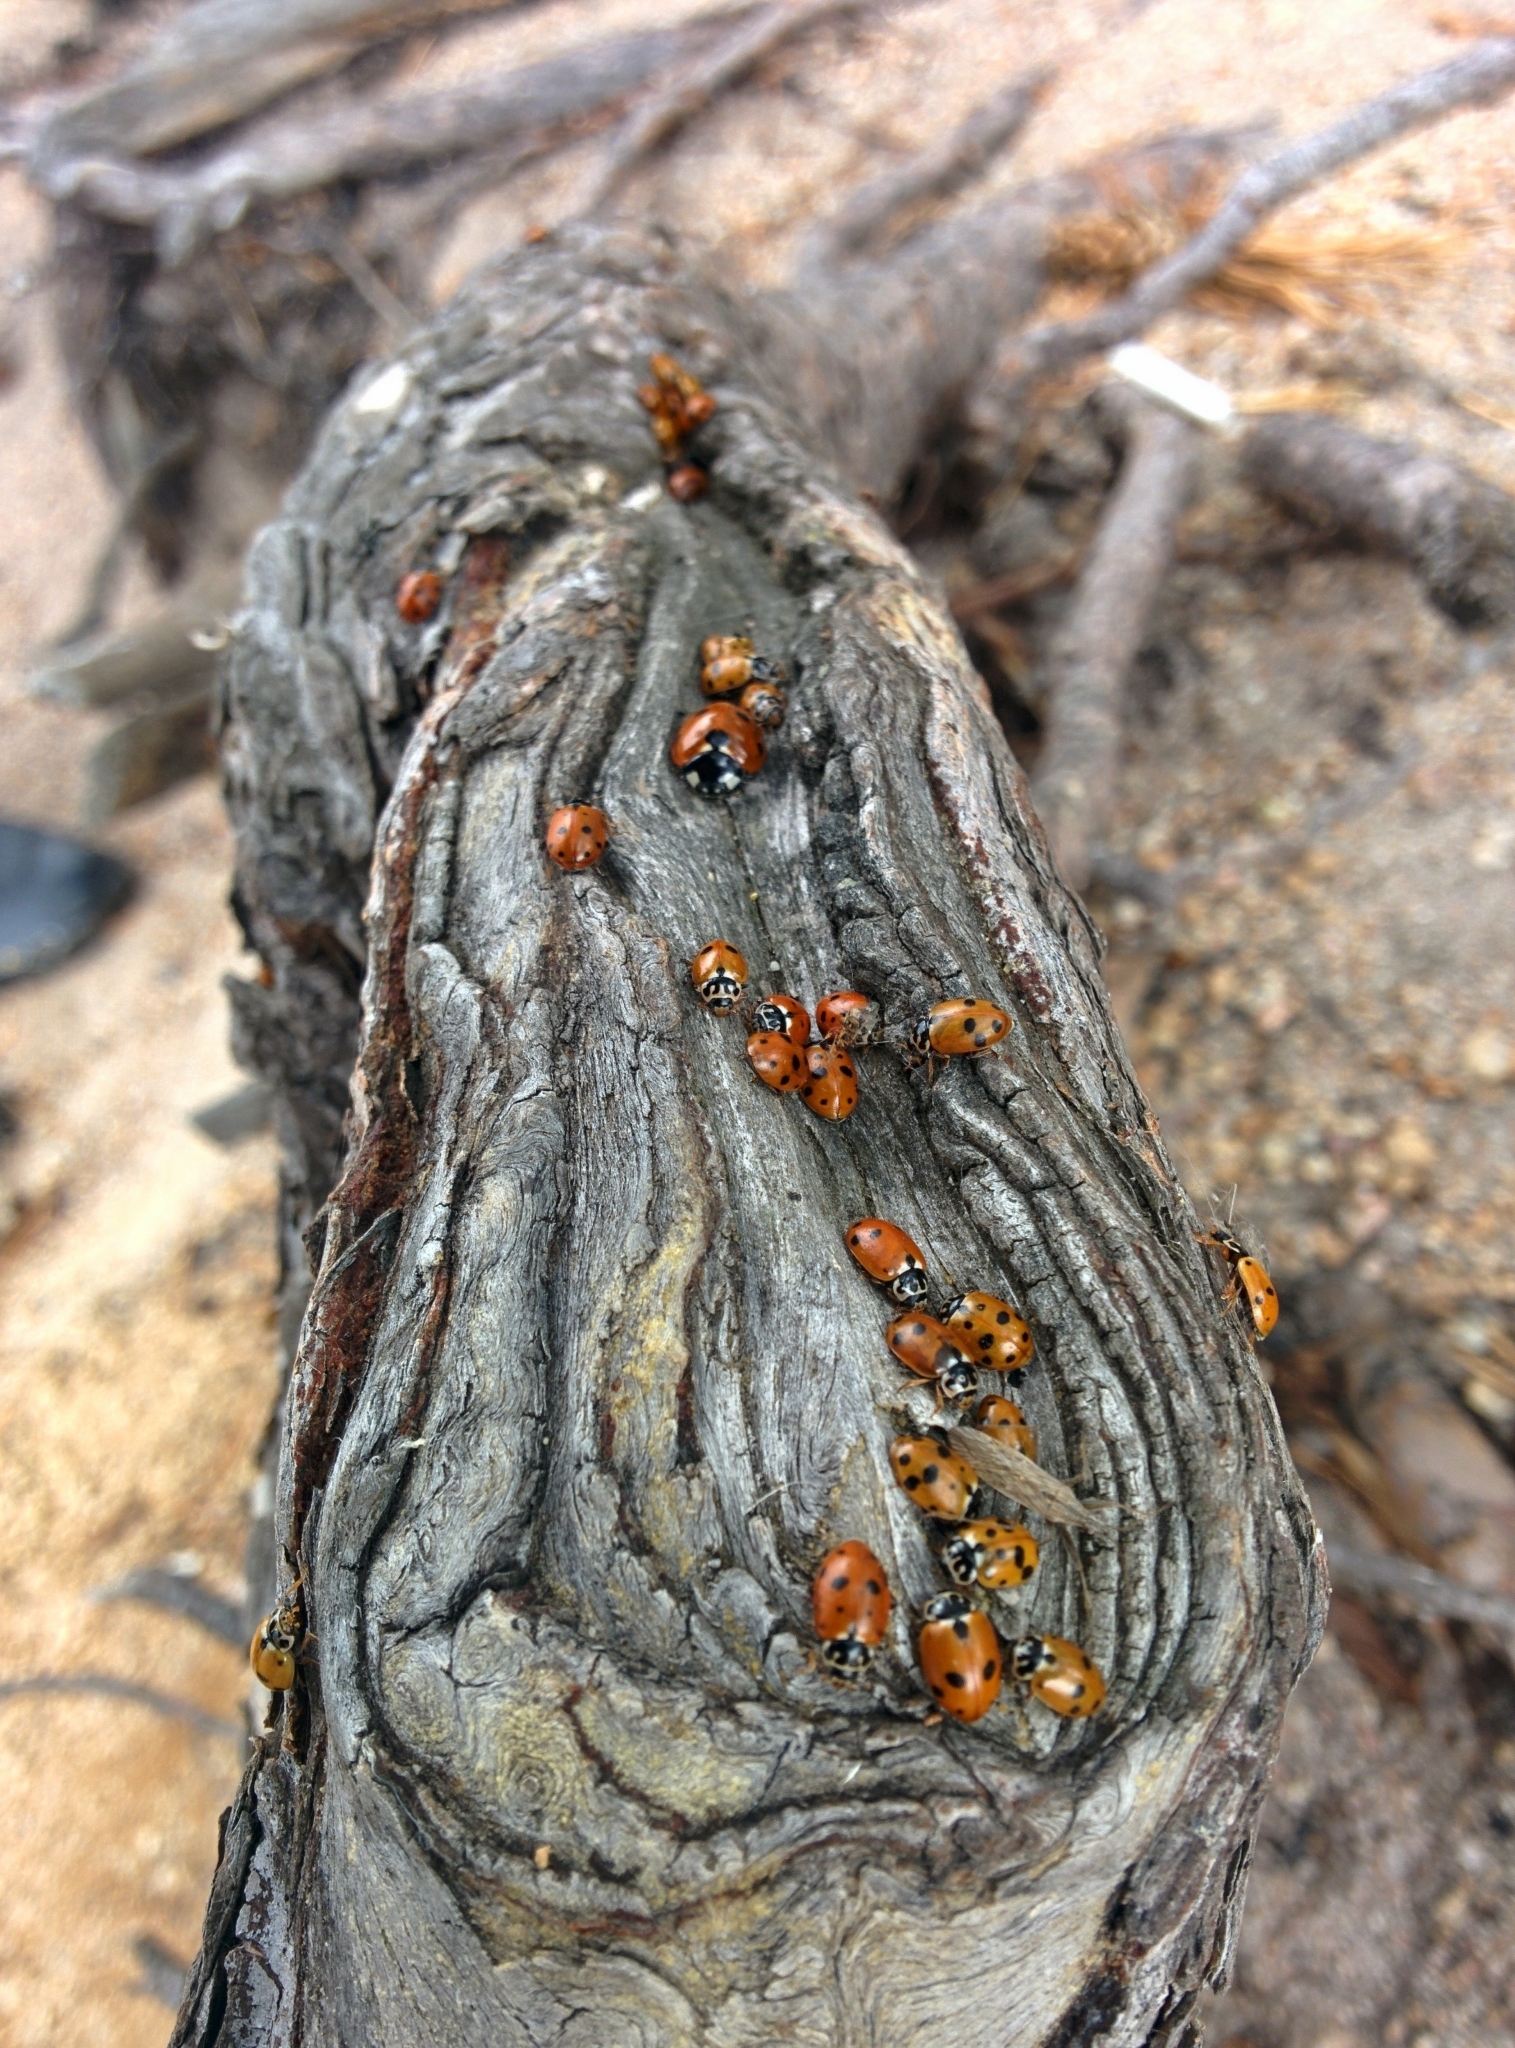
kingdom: Animalia
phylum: Arthropoda
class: Insecta
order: Coleoptera
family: Coccinellidae
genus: Hippodamia
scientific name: Hippodamia variegata
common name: Ladybird beetle
